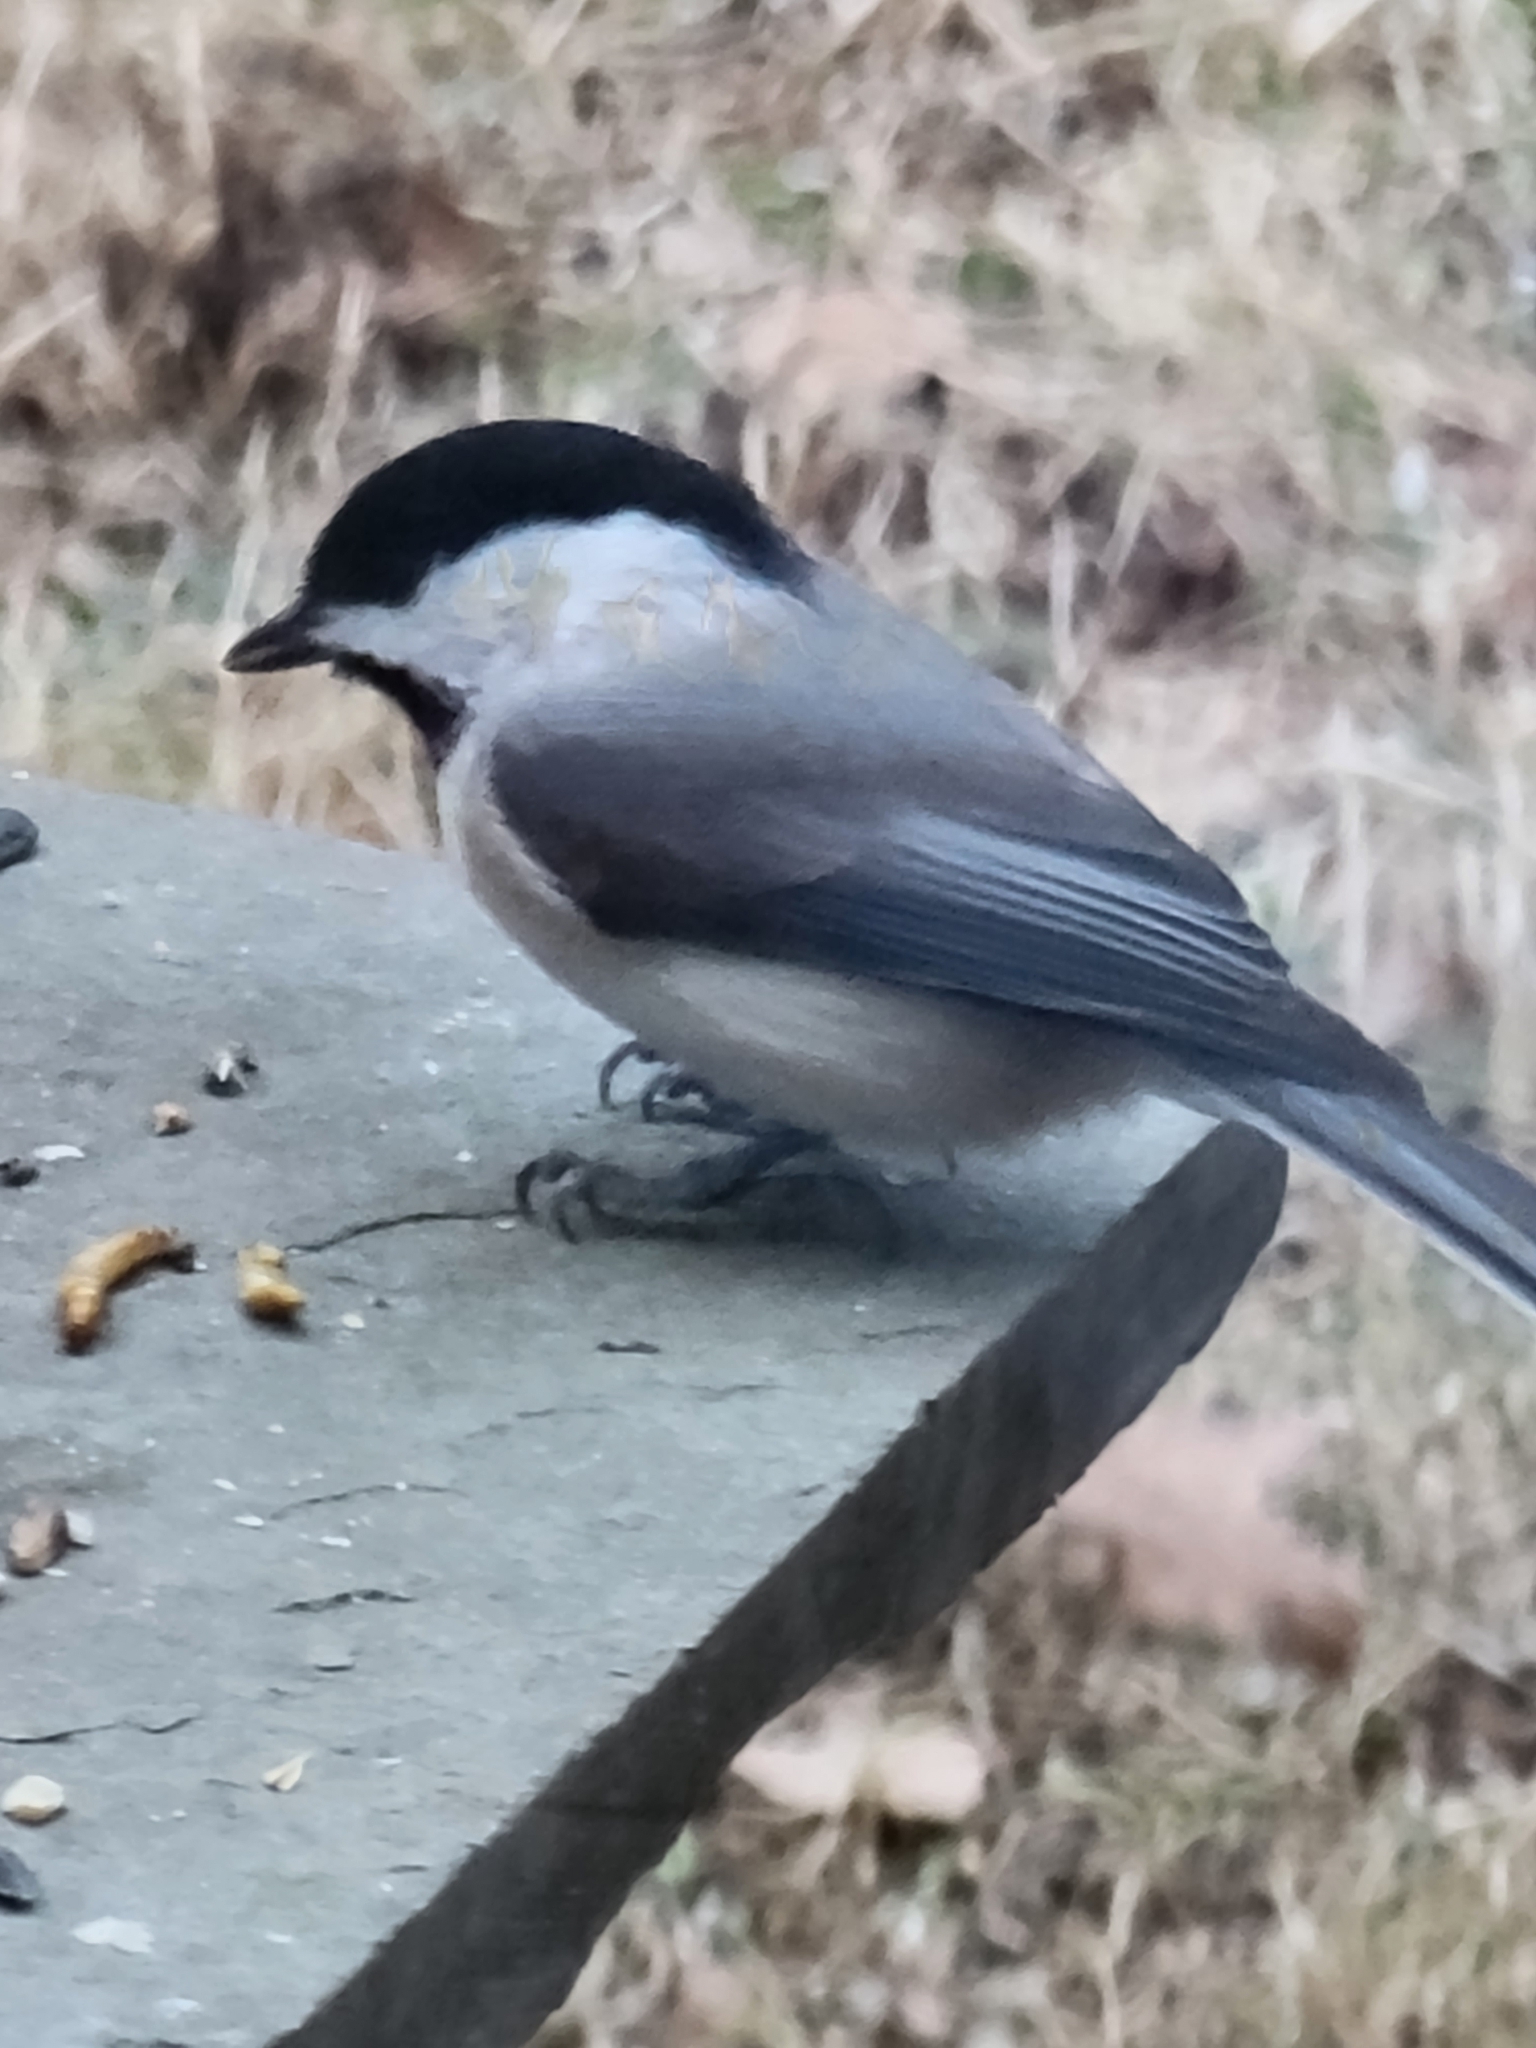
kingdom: Animalia
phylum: Chordata
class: Aves
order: Passeriformes
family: Paridae
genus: Poecile
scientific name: Poecile carolinensis
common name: Carolina chickadee
